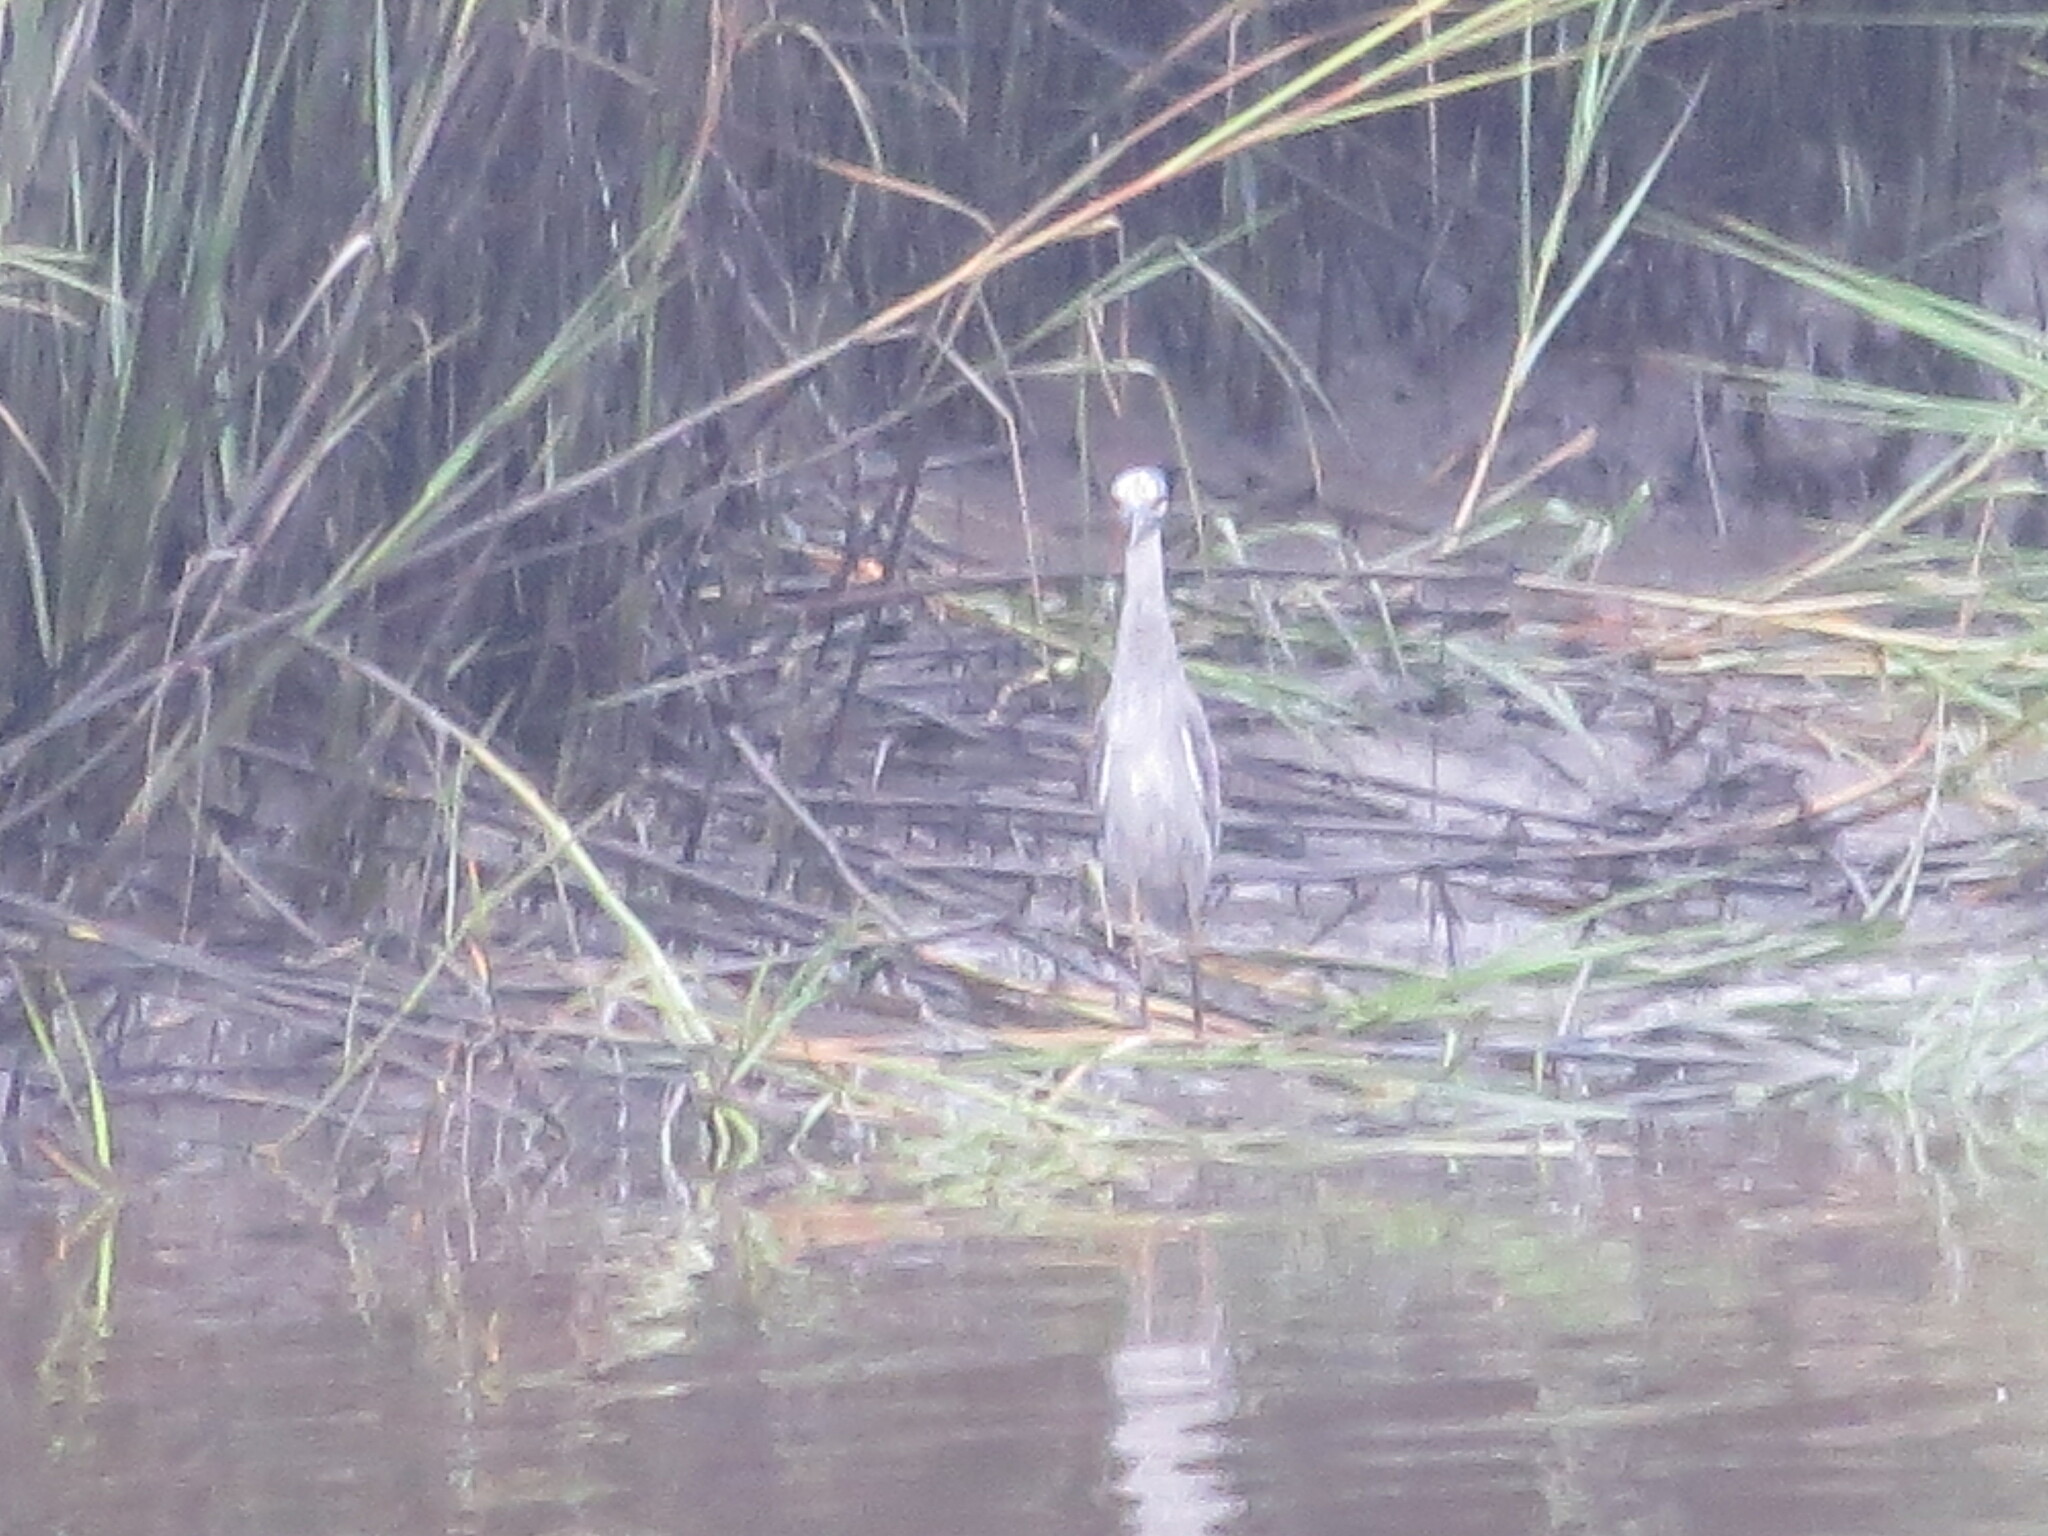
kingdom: Animalia
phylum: Chordata
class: Aves
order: Pelecaniformes
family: Ardeidae
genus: Nyctanassa
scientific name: Nyctanassa violacea
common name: Yellow-crowned night heron
